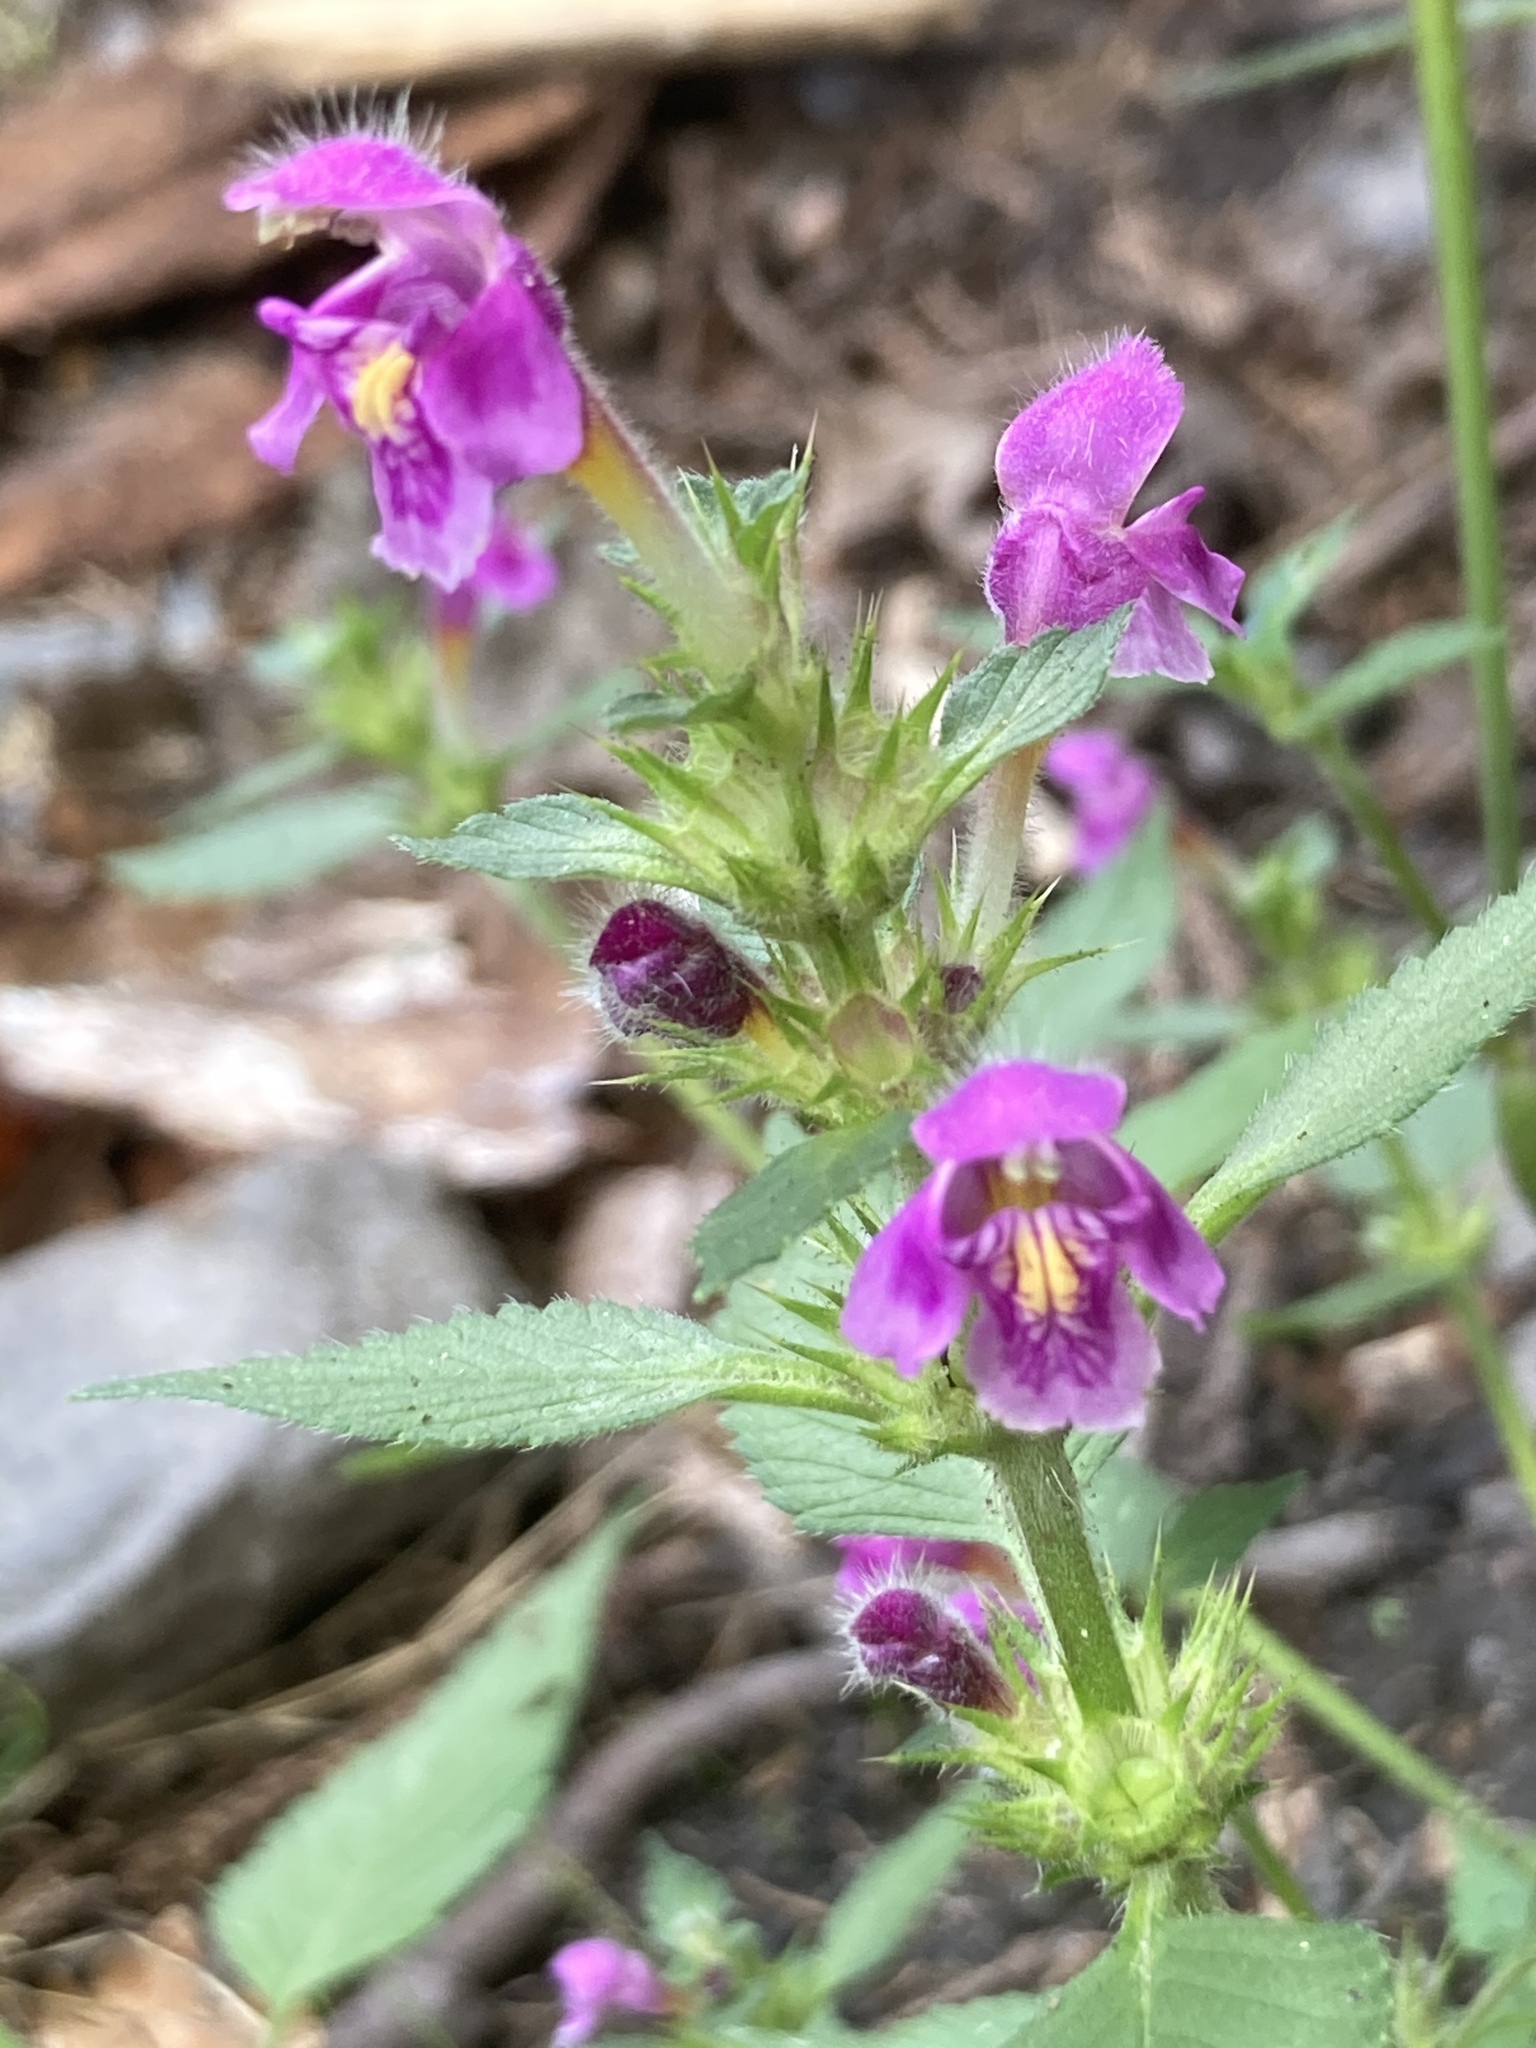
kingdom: Plantae
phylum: Tracheophyta
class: Magnoliopsida
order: Lamiales
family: Lamiaceae
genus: Galeopsis
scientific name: Galeopsis pubescens
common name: Downy hemp-nettle
